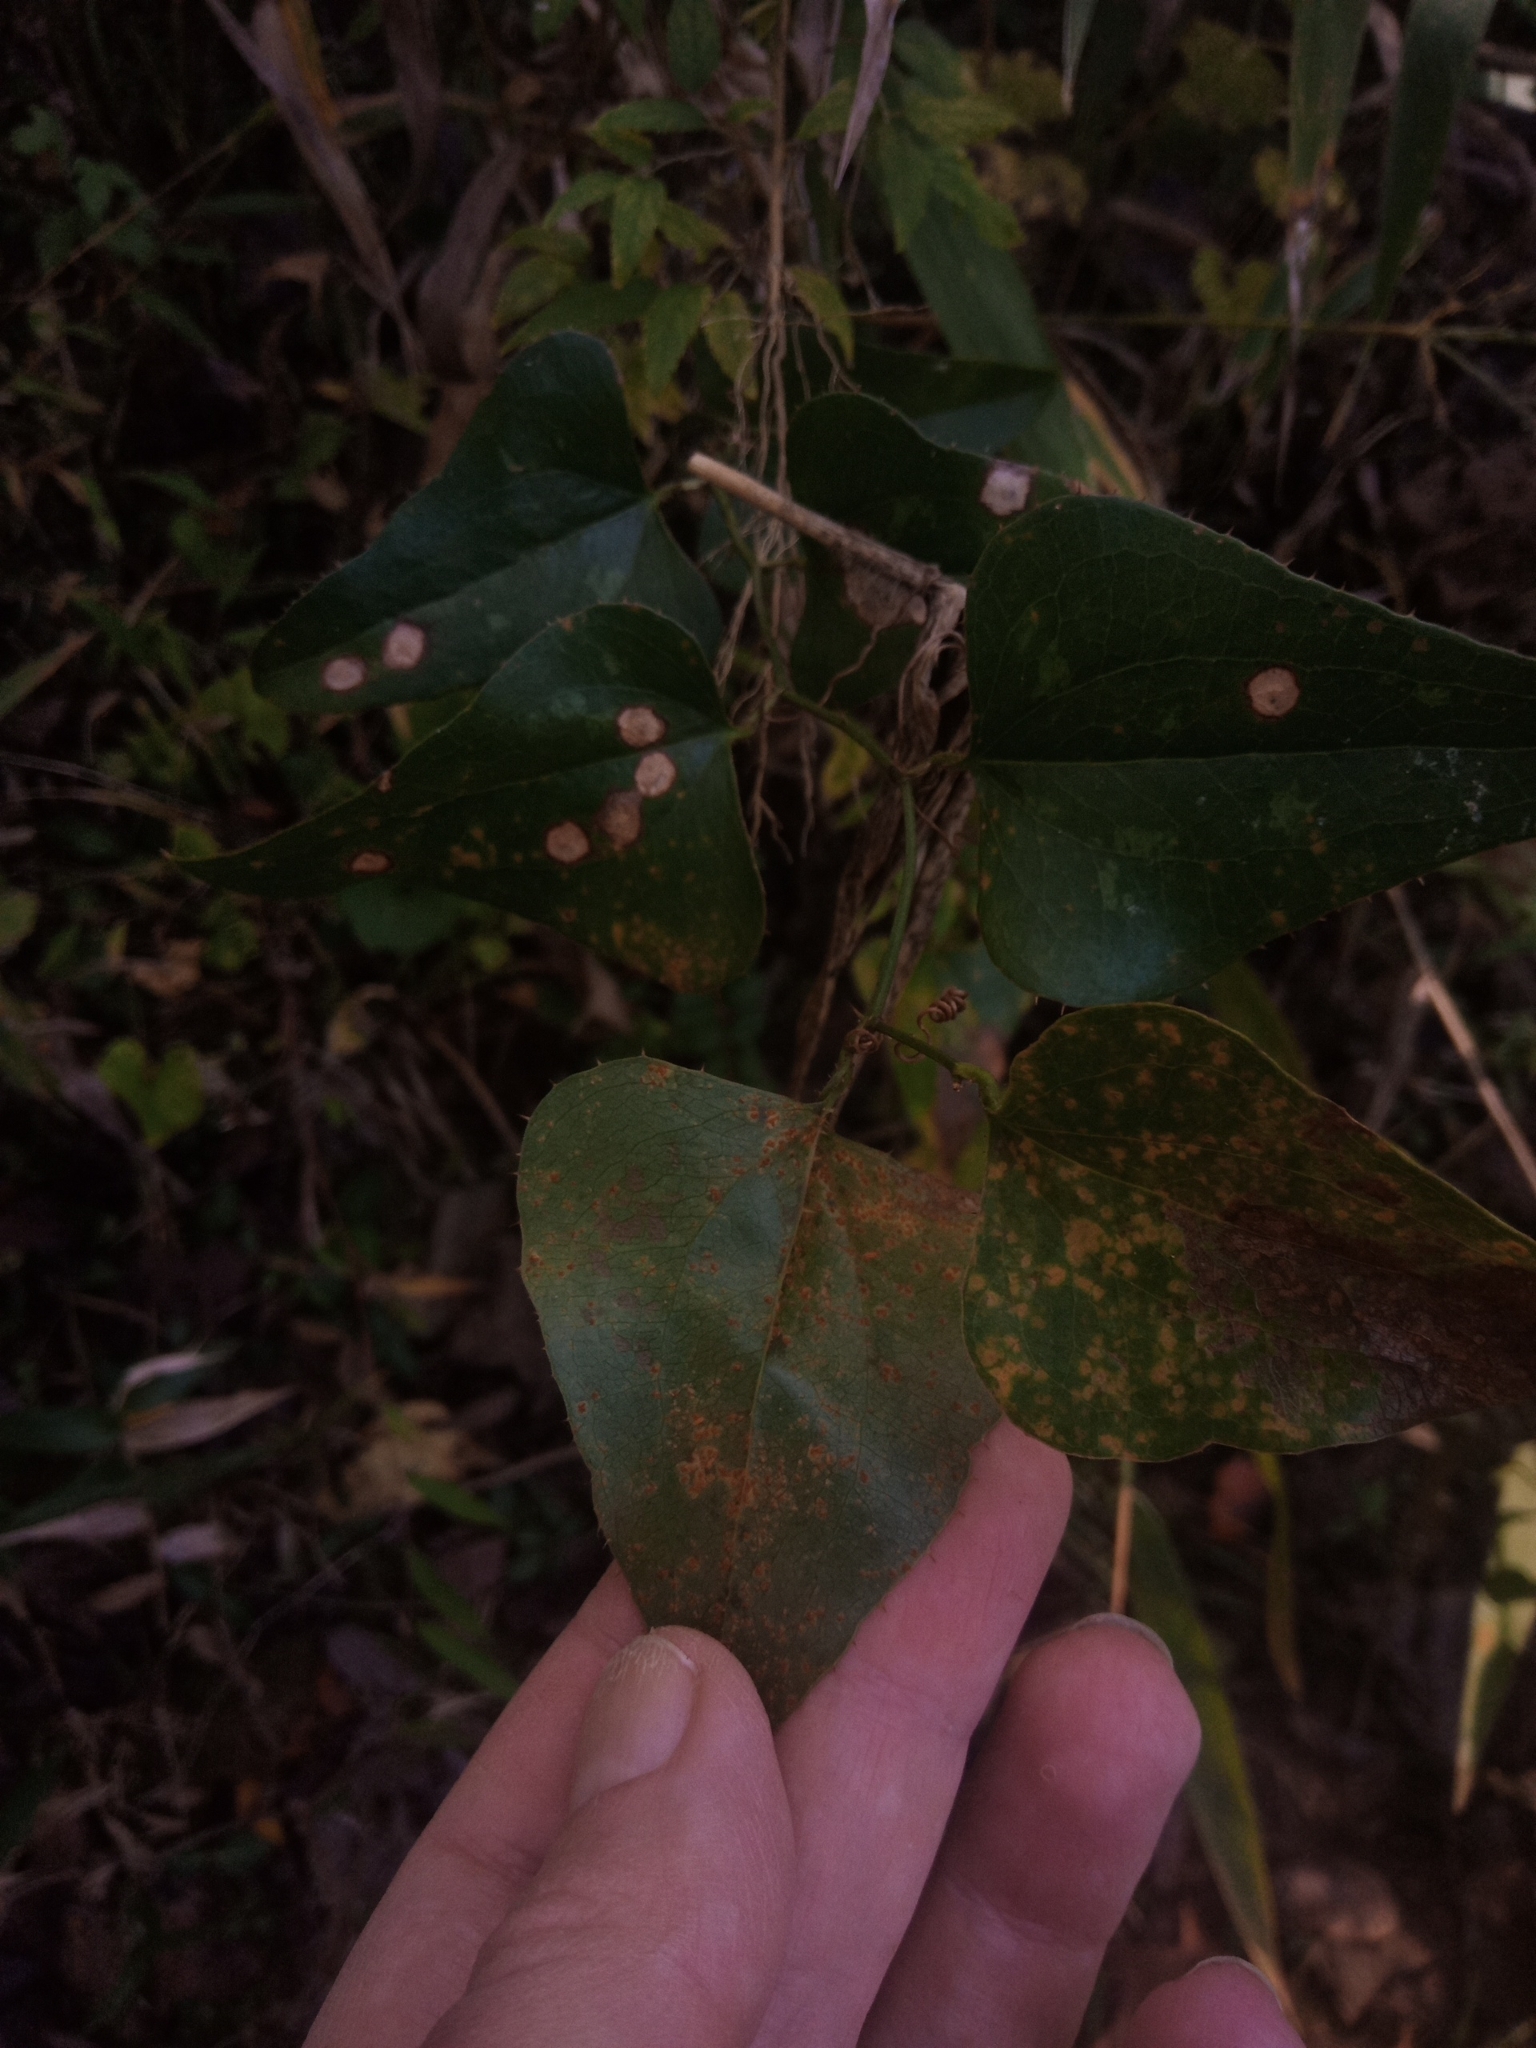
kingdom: Plantae
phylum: Tracheophyta
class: Liliopsida
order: Liliales
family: Smilacaceae
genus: Smilax
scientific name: Smilax bona-nox
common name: Catbrier
